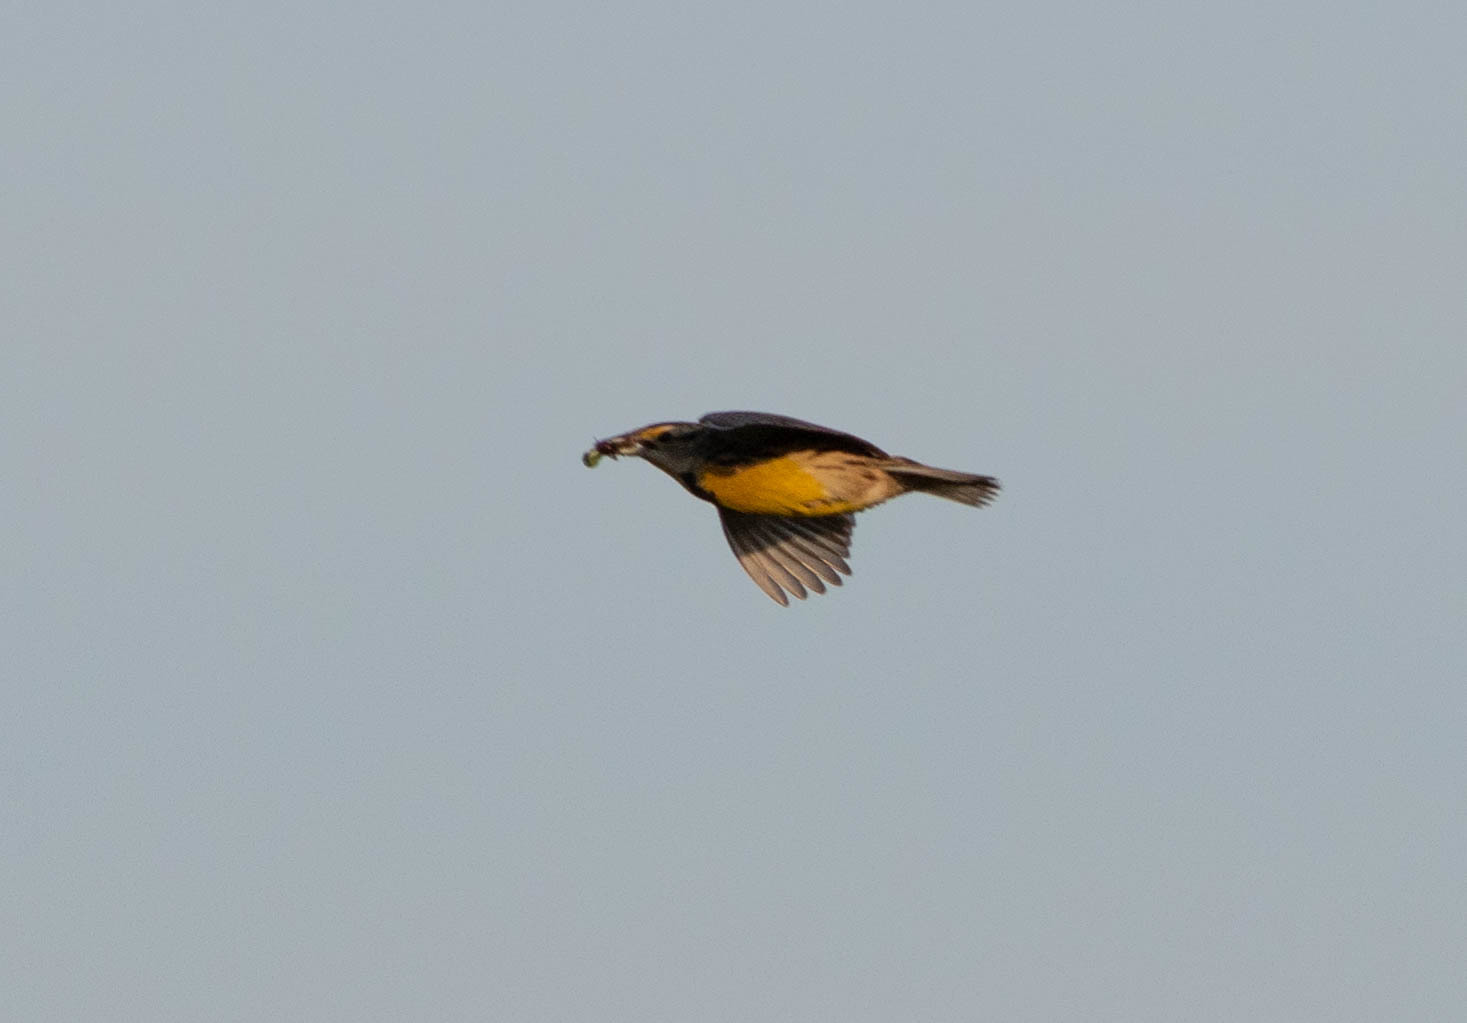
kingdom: Animalia
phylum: Chordata
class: Aves
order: Passeriformes
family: Icteridae
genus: Sturnella
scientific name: Sturnella magna
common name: Eastern meadowlark
